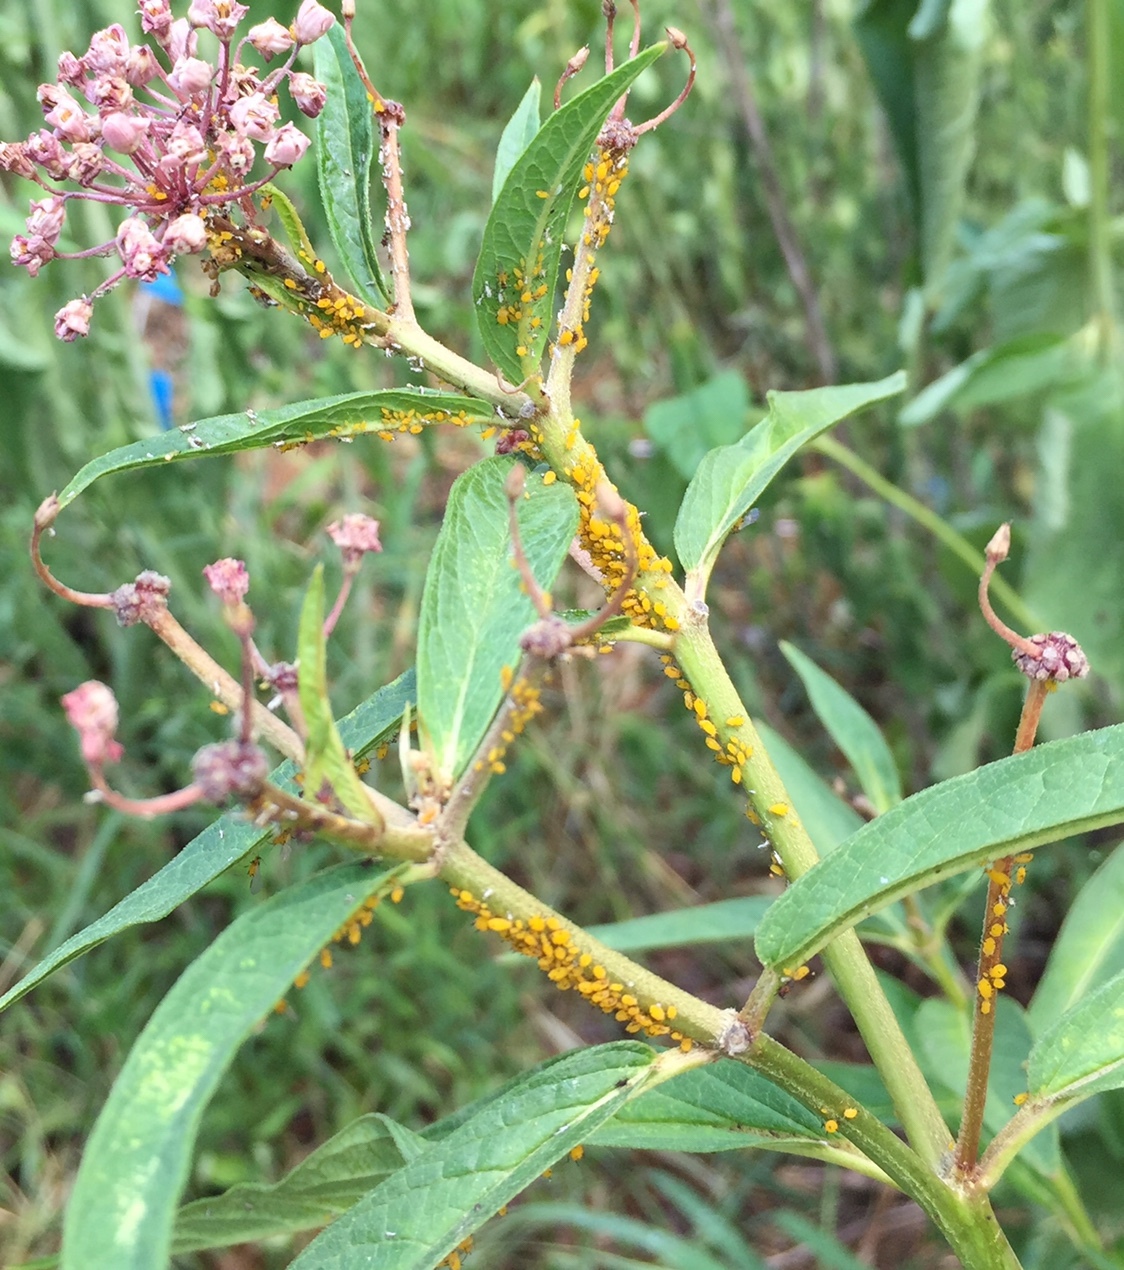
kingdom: Animalia
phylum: Arthropoda
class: Insecta
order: Hemiptera
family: Aphididae
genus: Aphis
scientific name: Aphis nerii
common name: Oleander aphid
